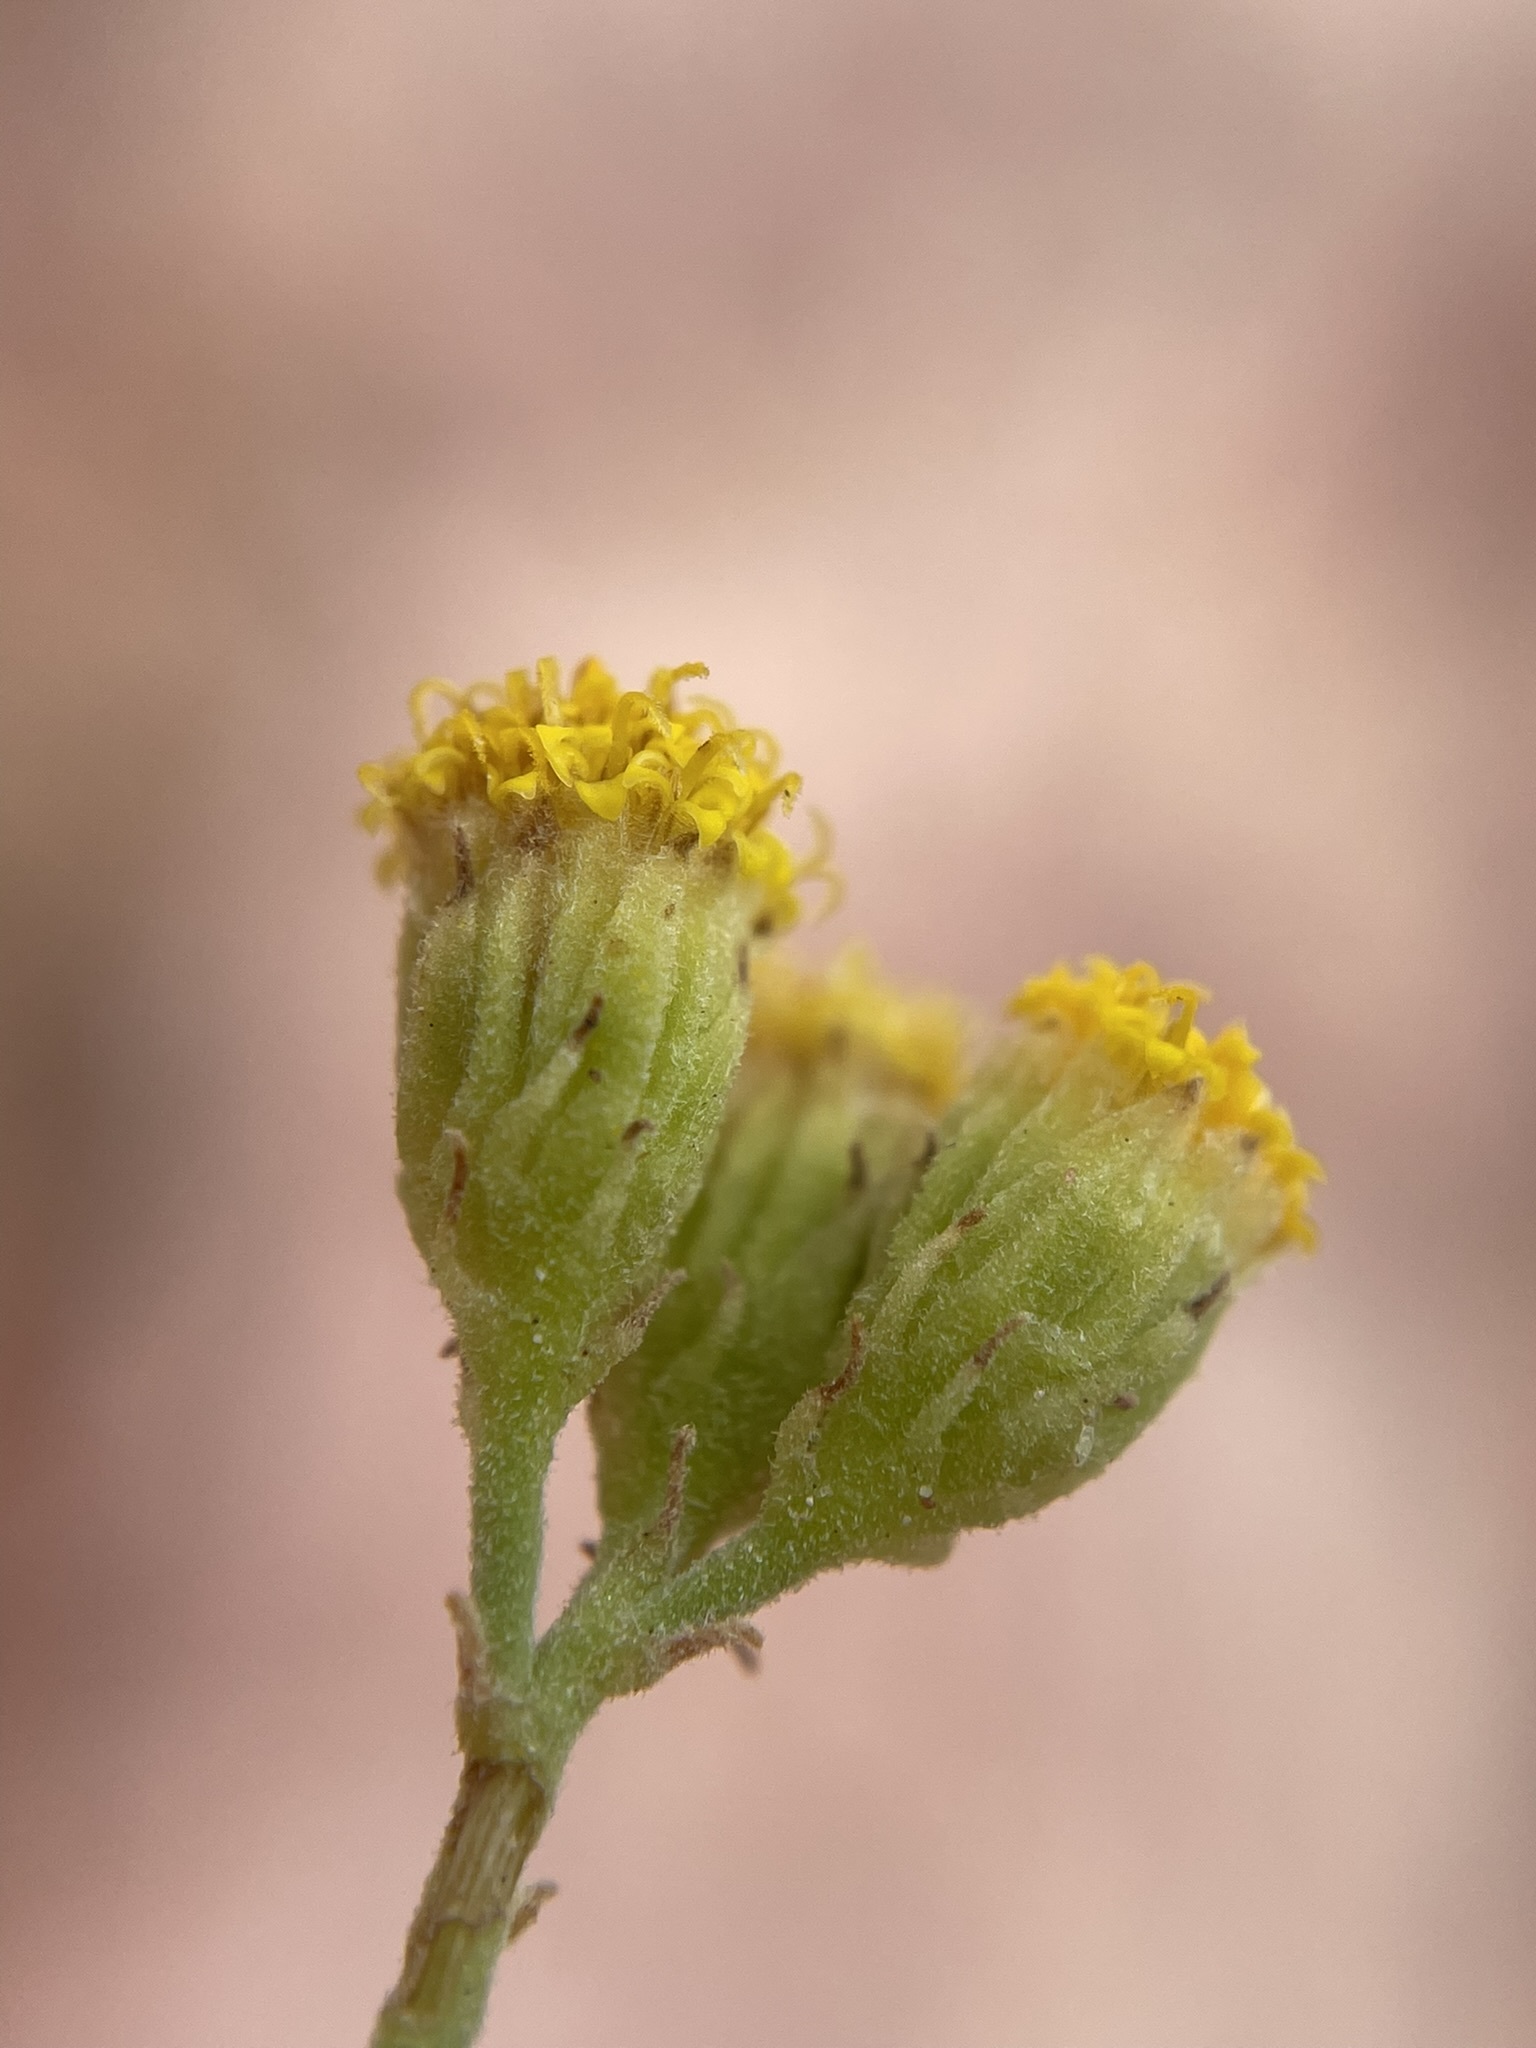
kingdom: Plantae
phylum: Tracheophyta
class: Magnoliopsida
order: Asterales
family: Asteraceae
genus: Laphamia
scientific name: Laphamia intricata
